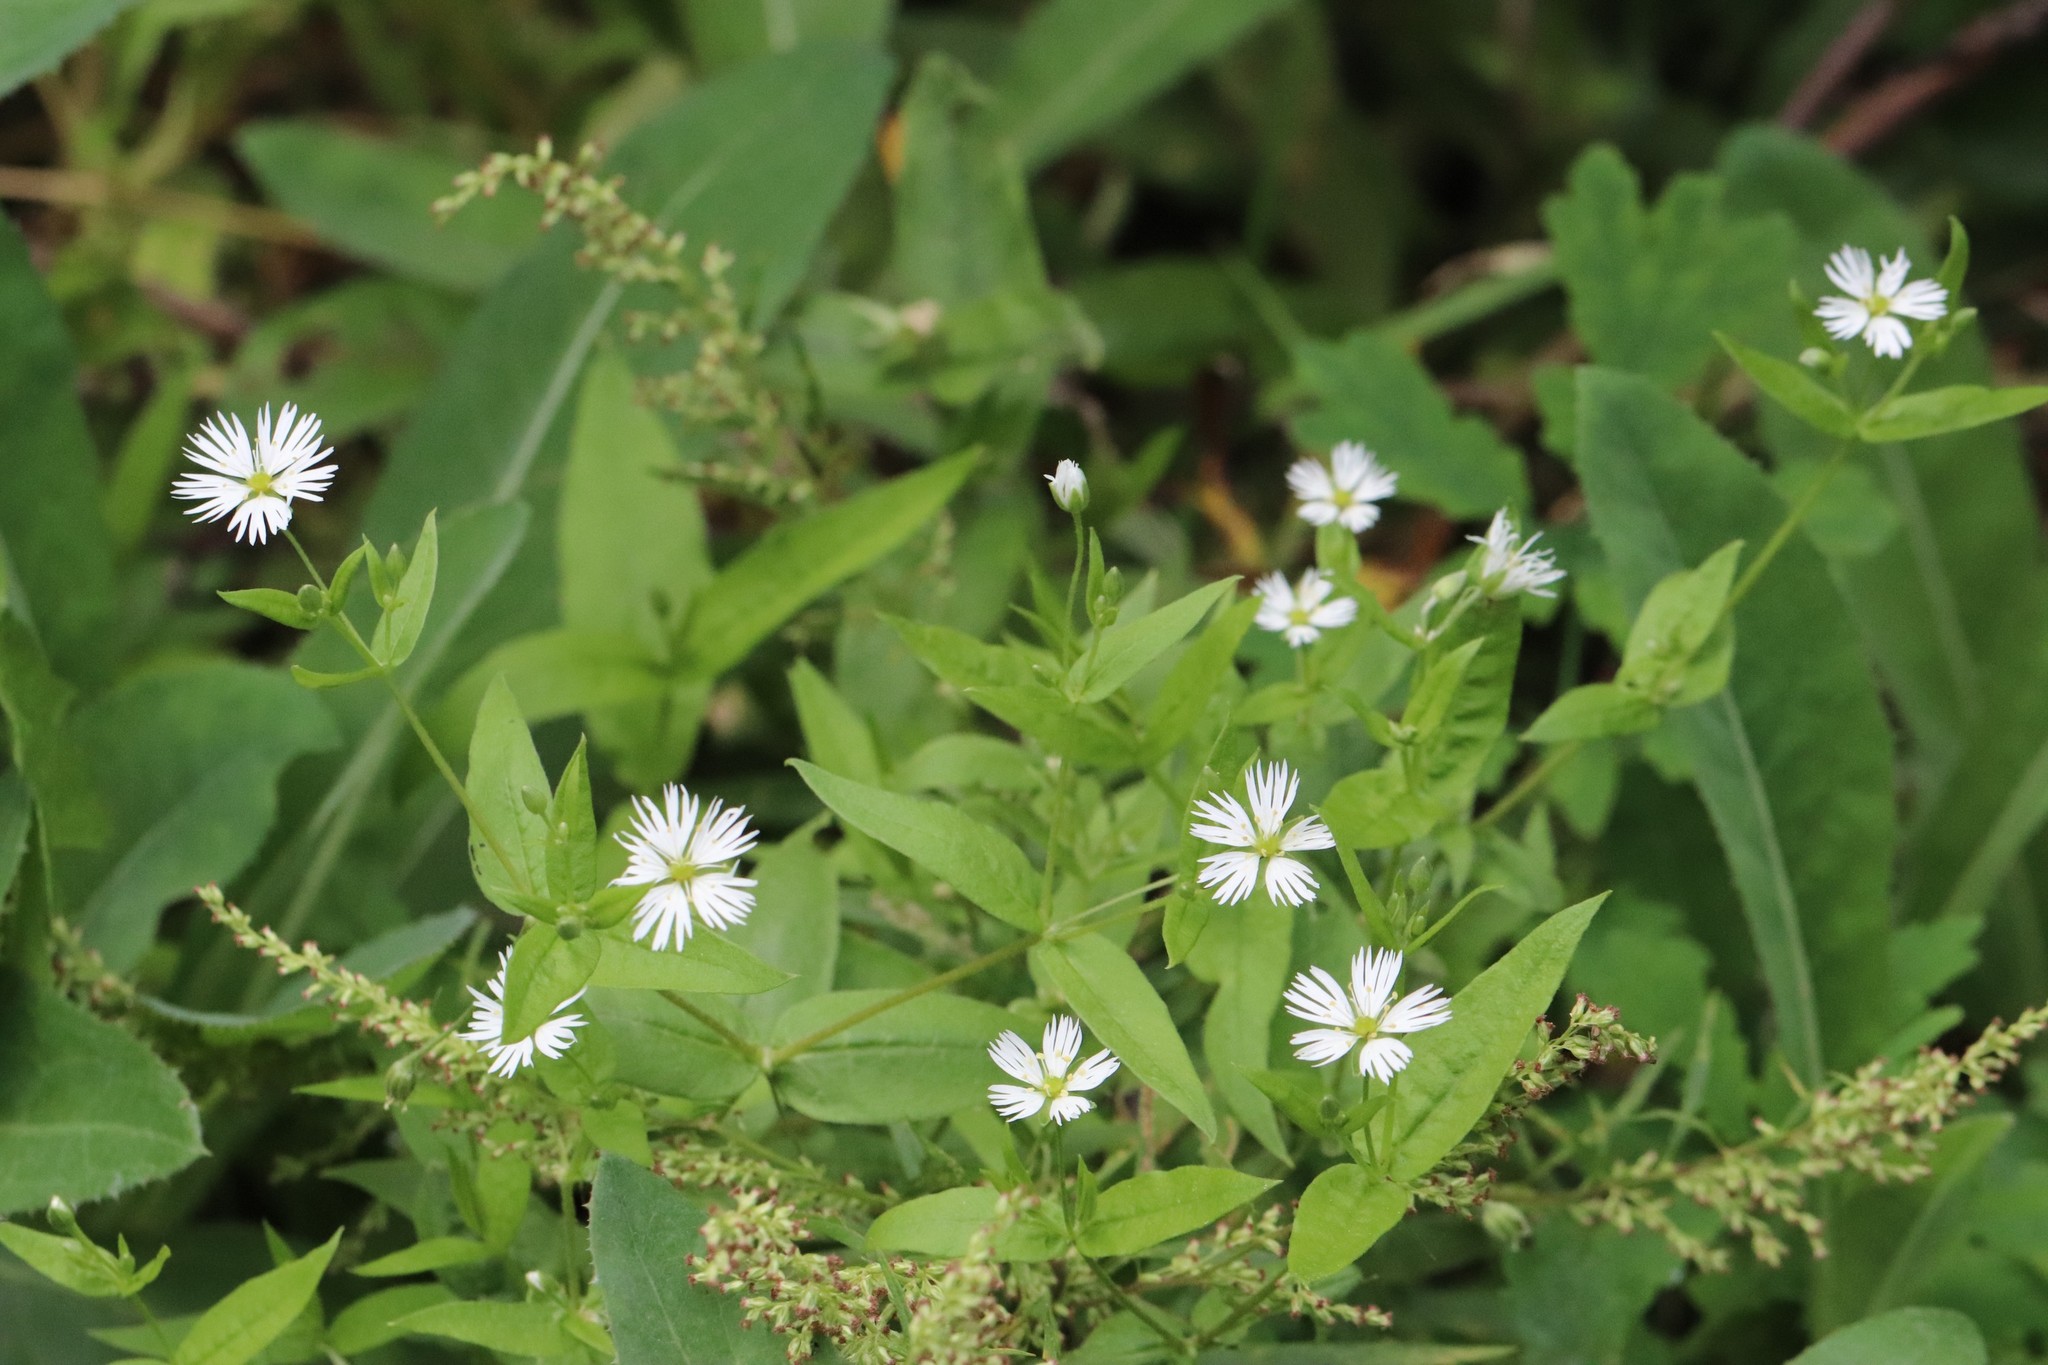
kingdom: Plantae
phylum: Tracheophyta
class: Magnoliopsida
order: Caryophyllales
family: Caryophyllaceae
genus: Stellaria
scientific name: Stellaria radians
